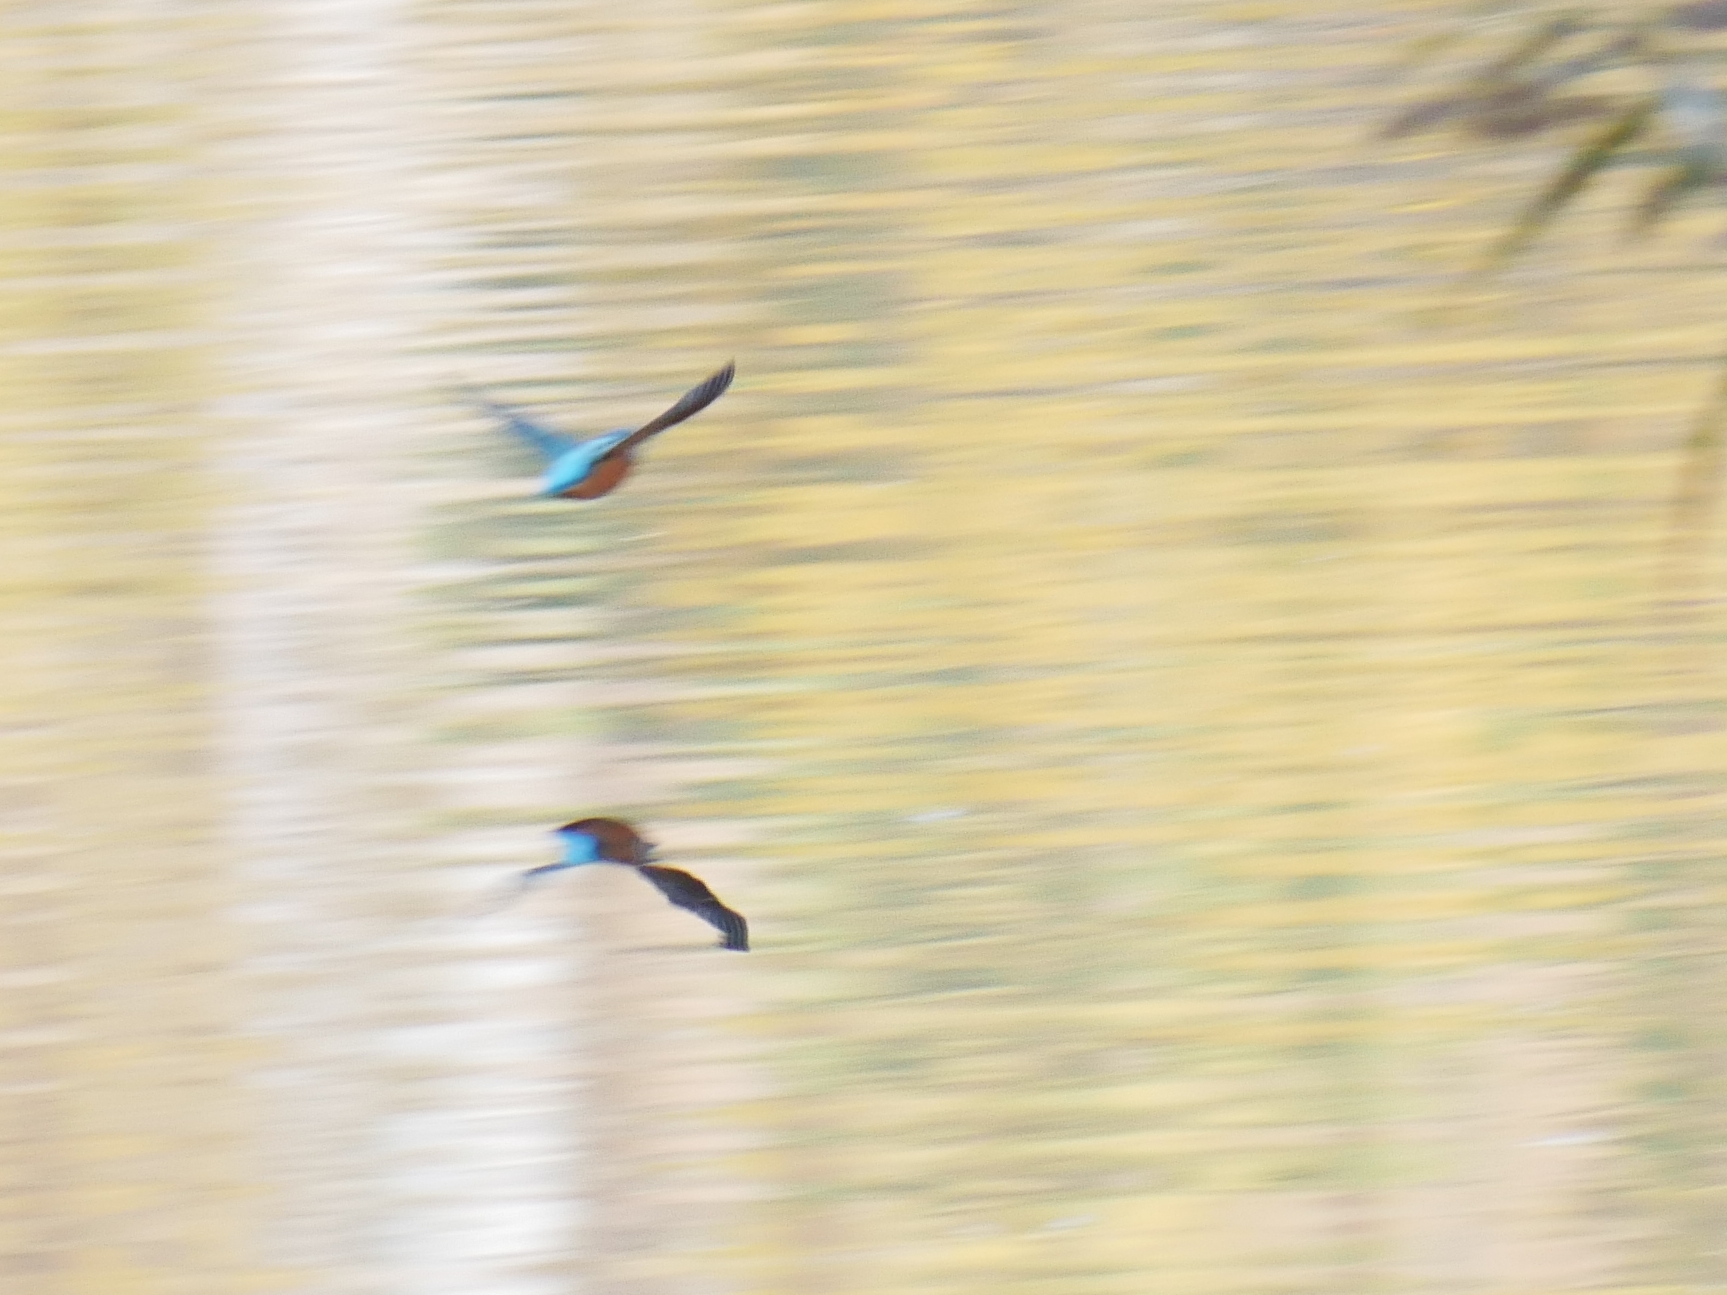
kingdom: Animalia
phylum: Chordata
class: Aves
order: Coraciiformes
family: Alcedinidae
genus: Alcedo
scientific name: Alcedo atthis
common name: Common kingfisher
